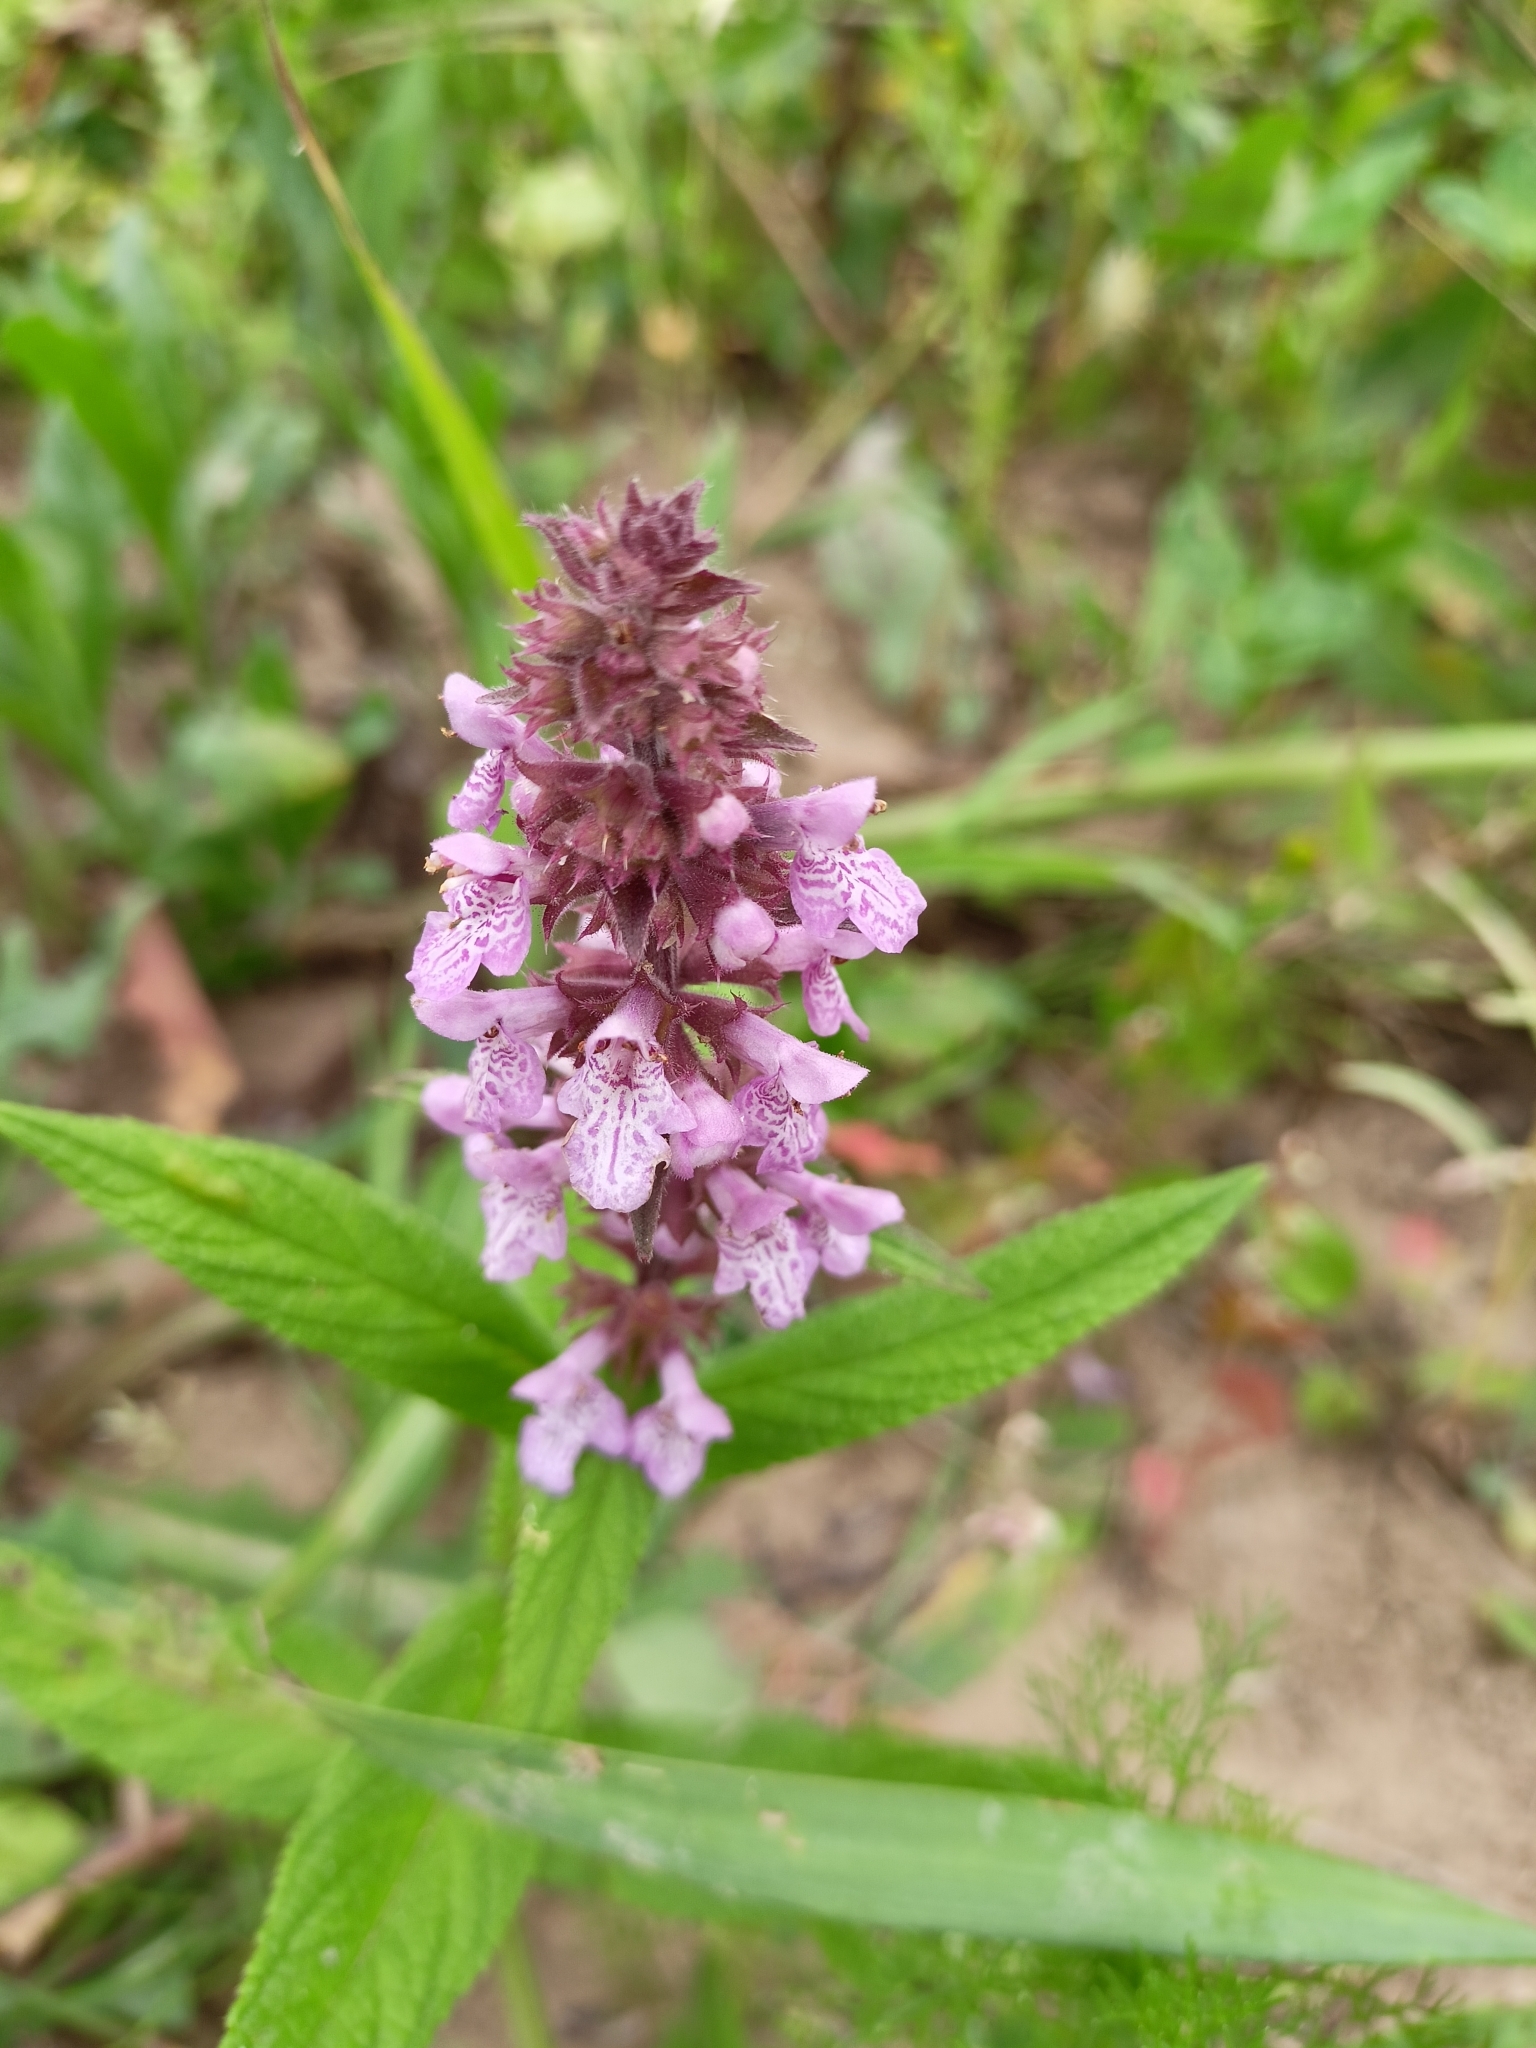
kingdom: Plantae
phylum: Tracheophyta
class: Magnoliopsida
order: Lamiales
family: Lamiaceae
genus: Stachys
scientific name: Stachys palustris
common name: Marsh woundwort
